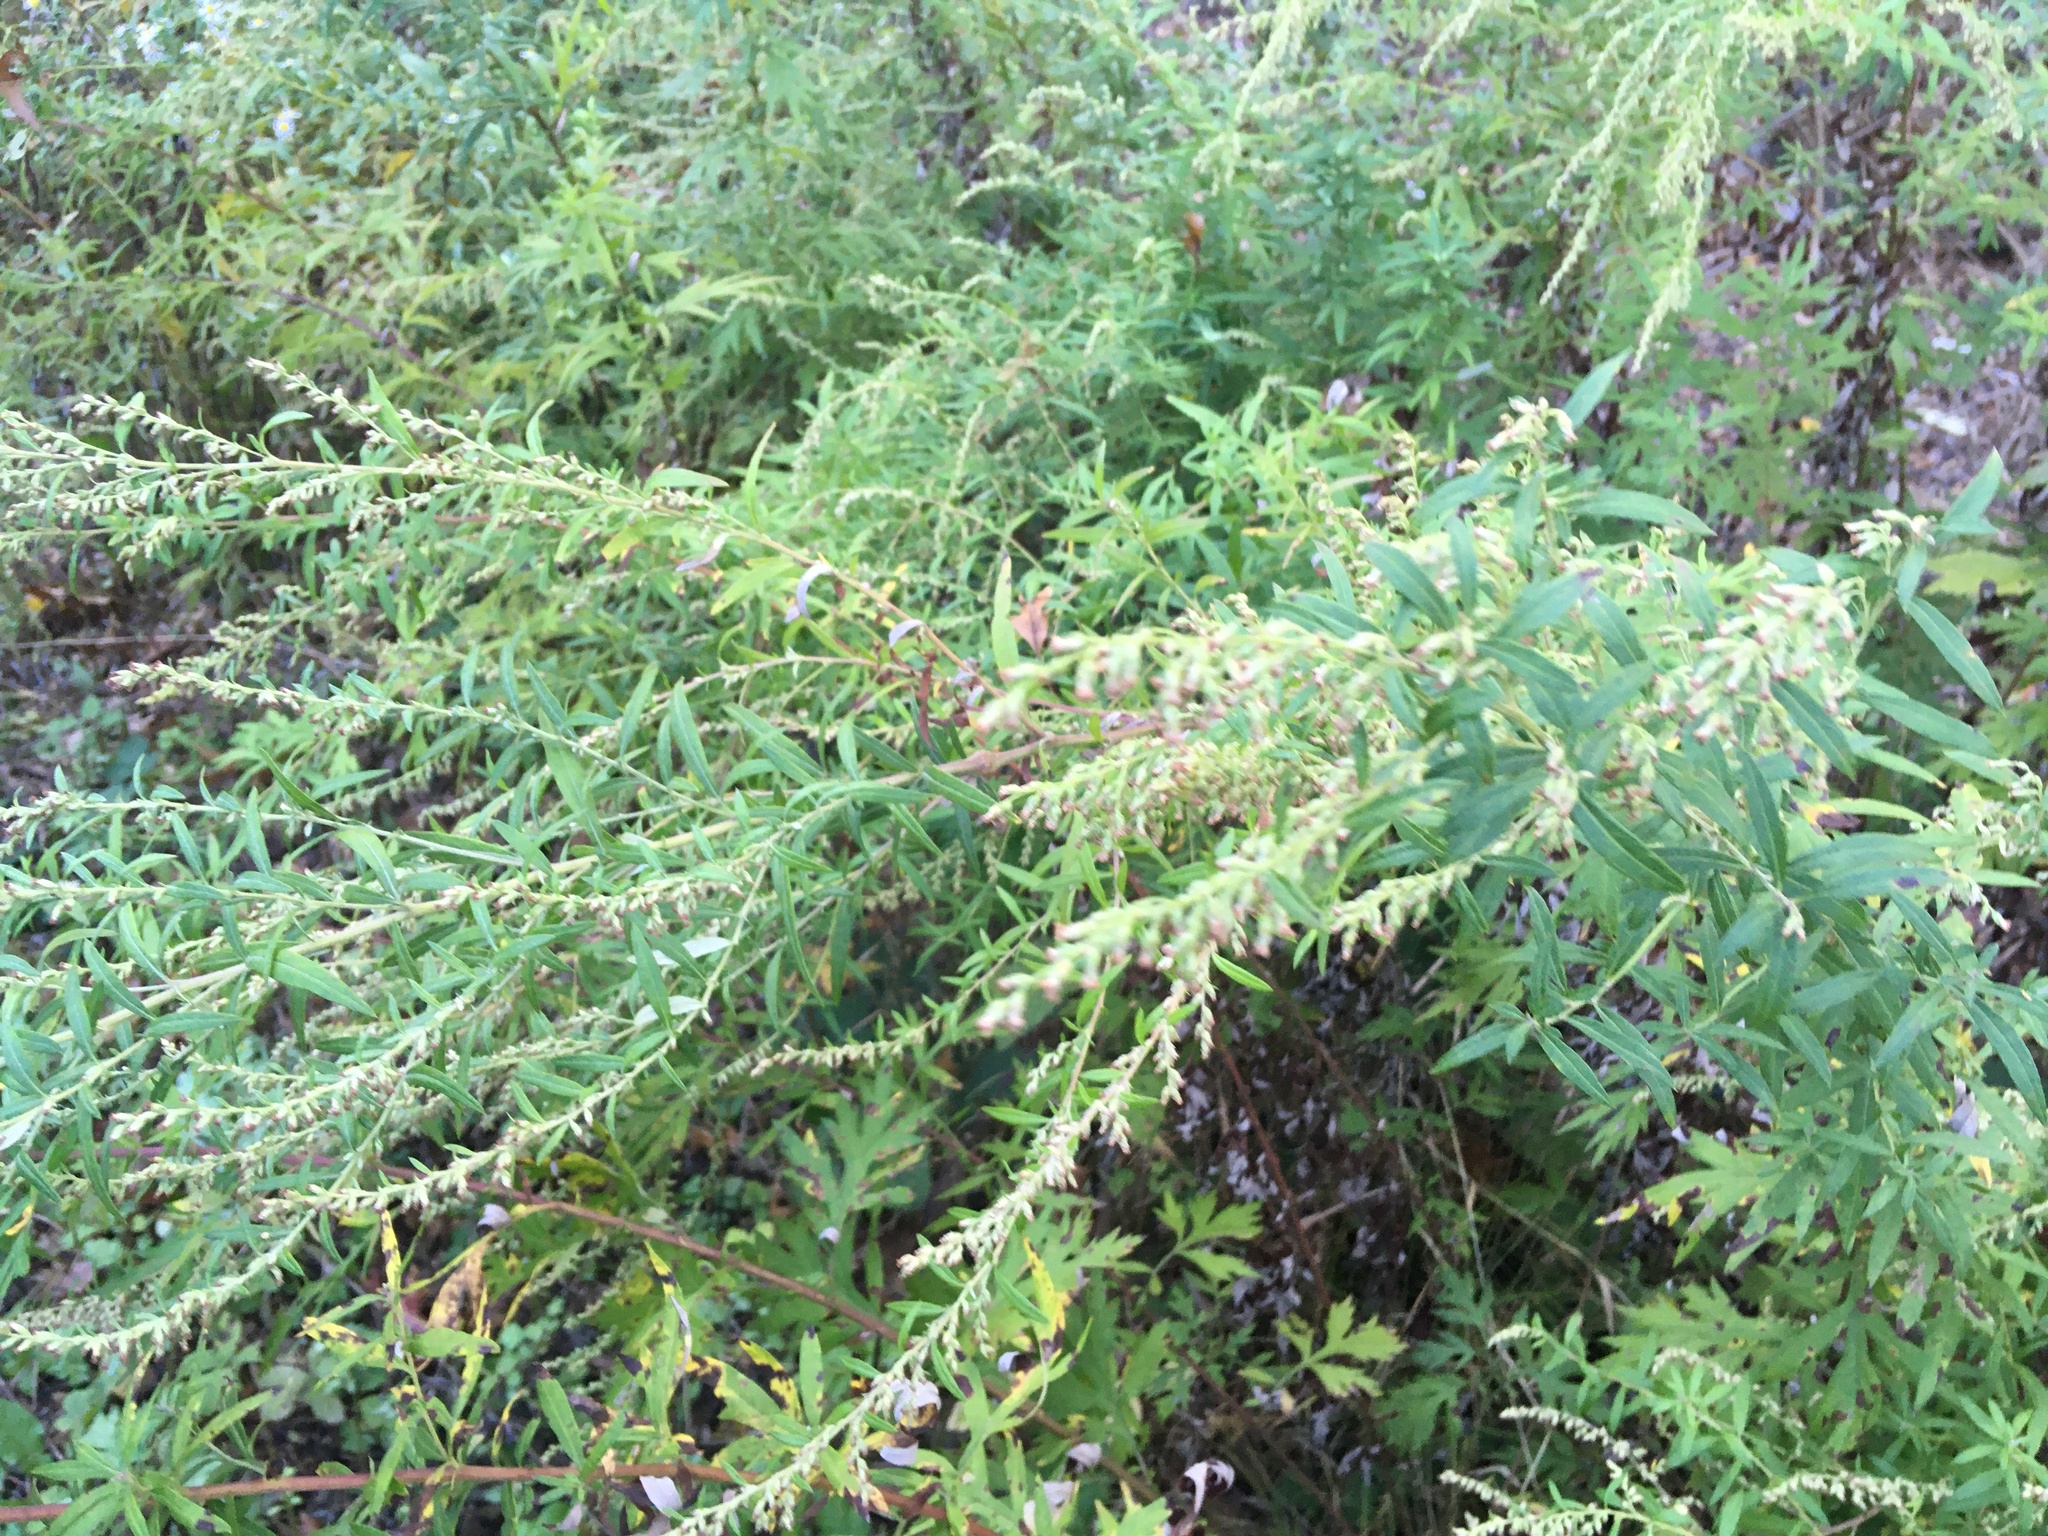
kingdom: Plantae
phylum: Tracheophyta
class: Magnoliopsida
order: Asterales
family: Asteraceae
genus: Artemisia
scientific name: Artemisia vulgaris
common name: Mugwort
